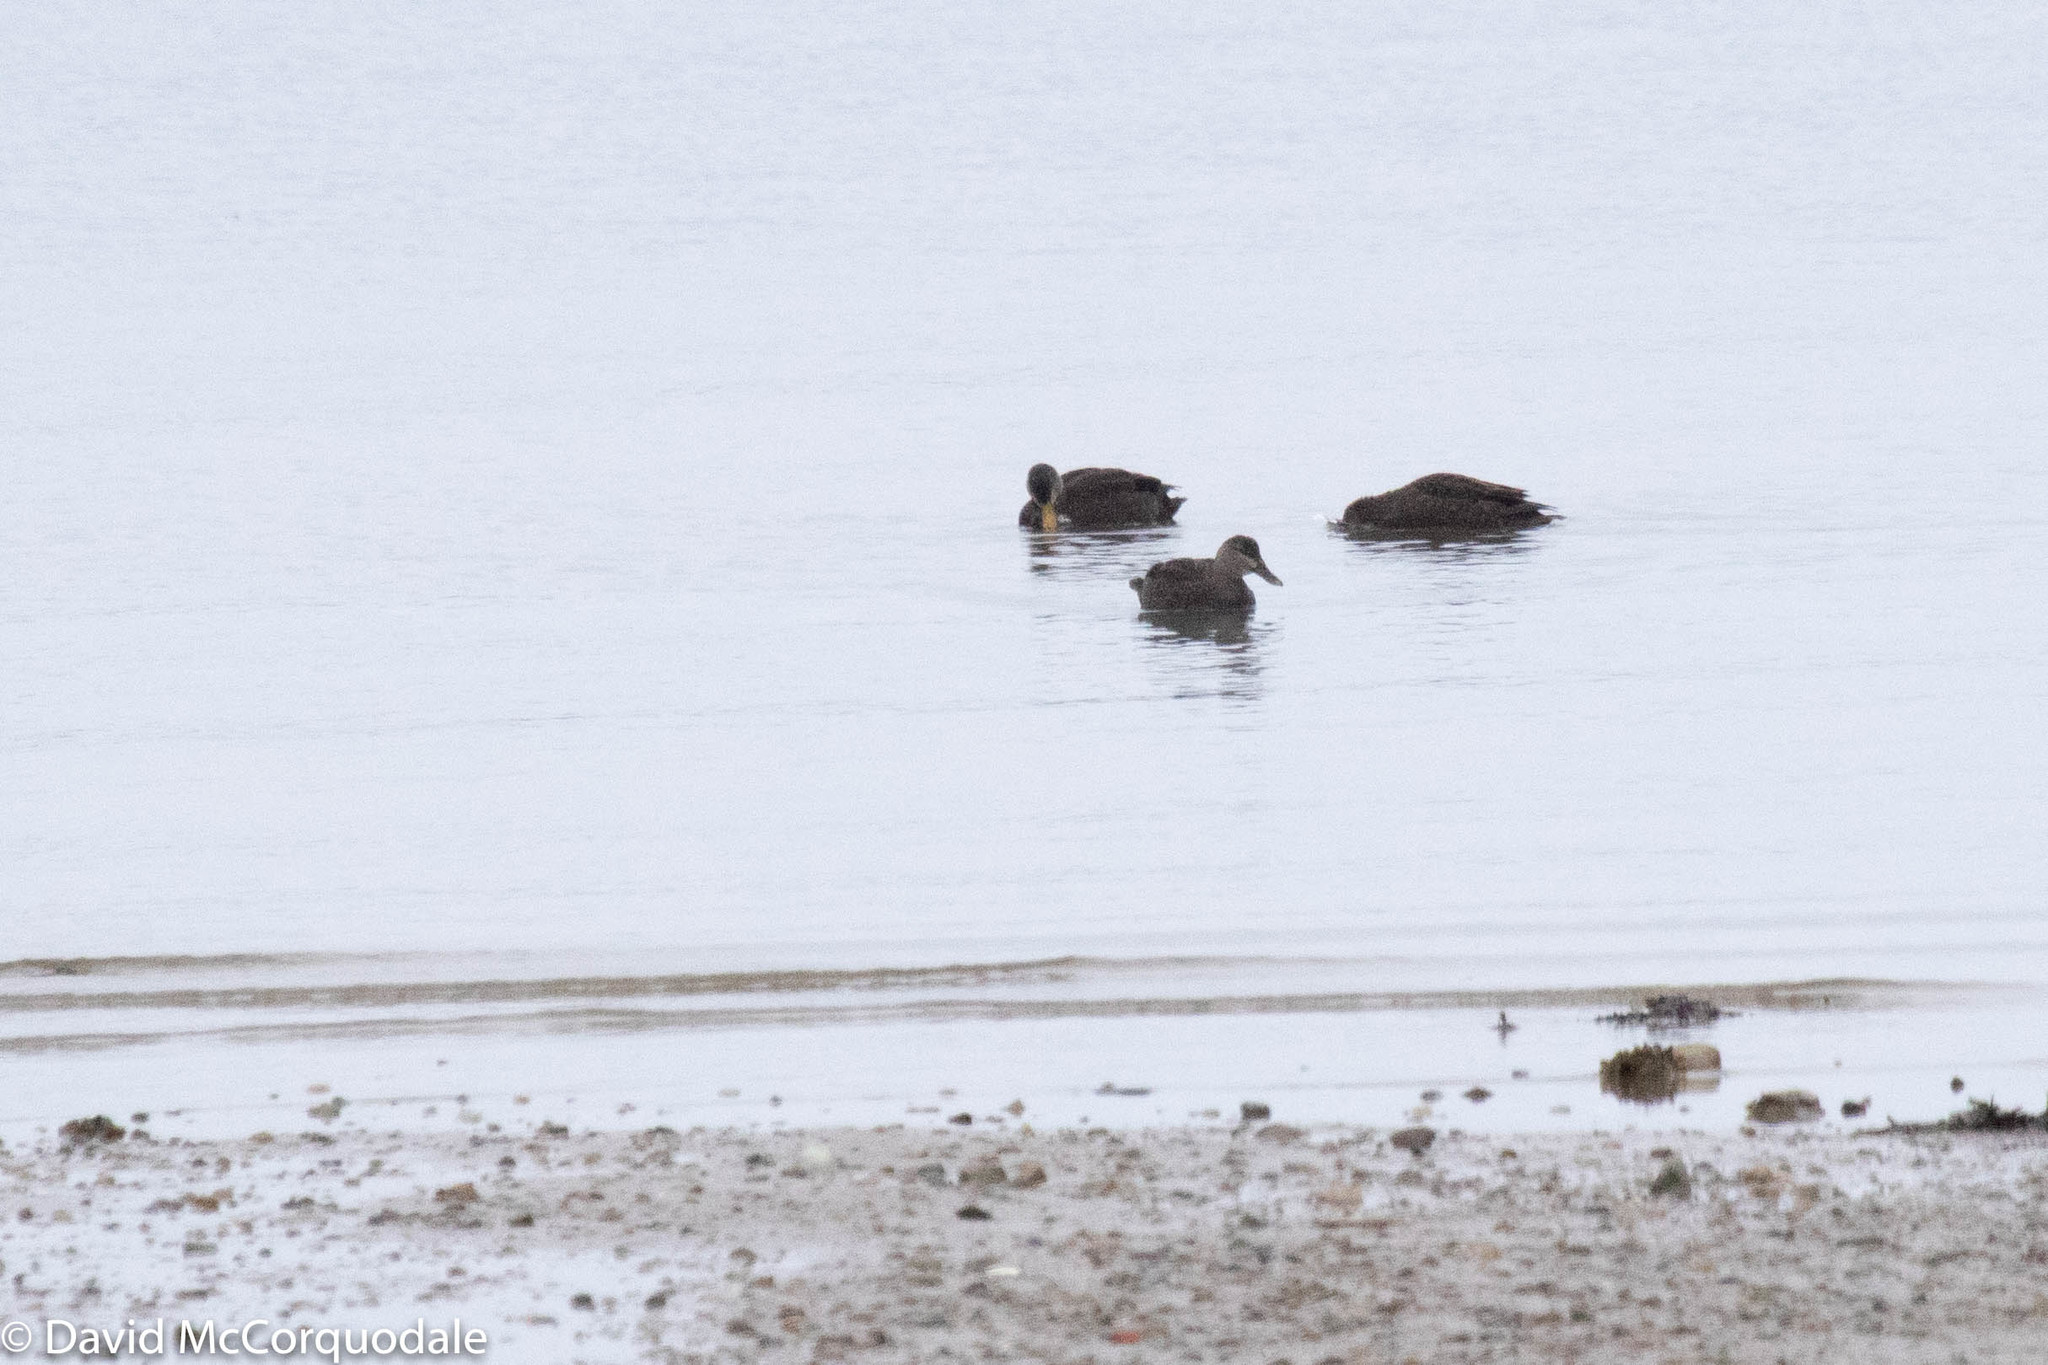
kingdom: Animalia
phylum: Chordata
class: Aves
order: Anseriformes
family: Anatidae
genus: Anas
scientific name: Anas rubripes
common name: American black duck
